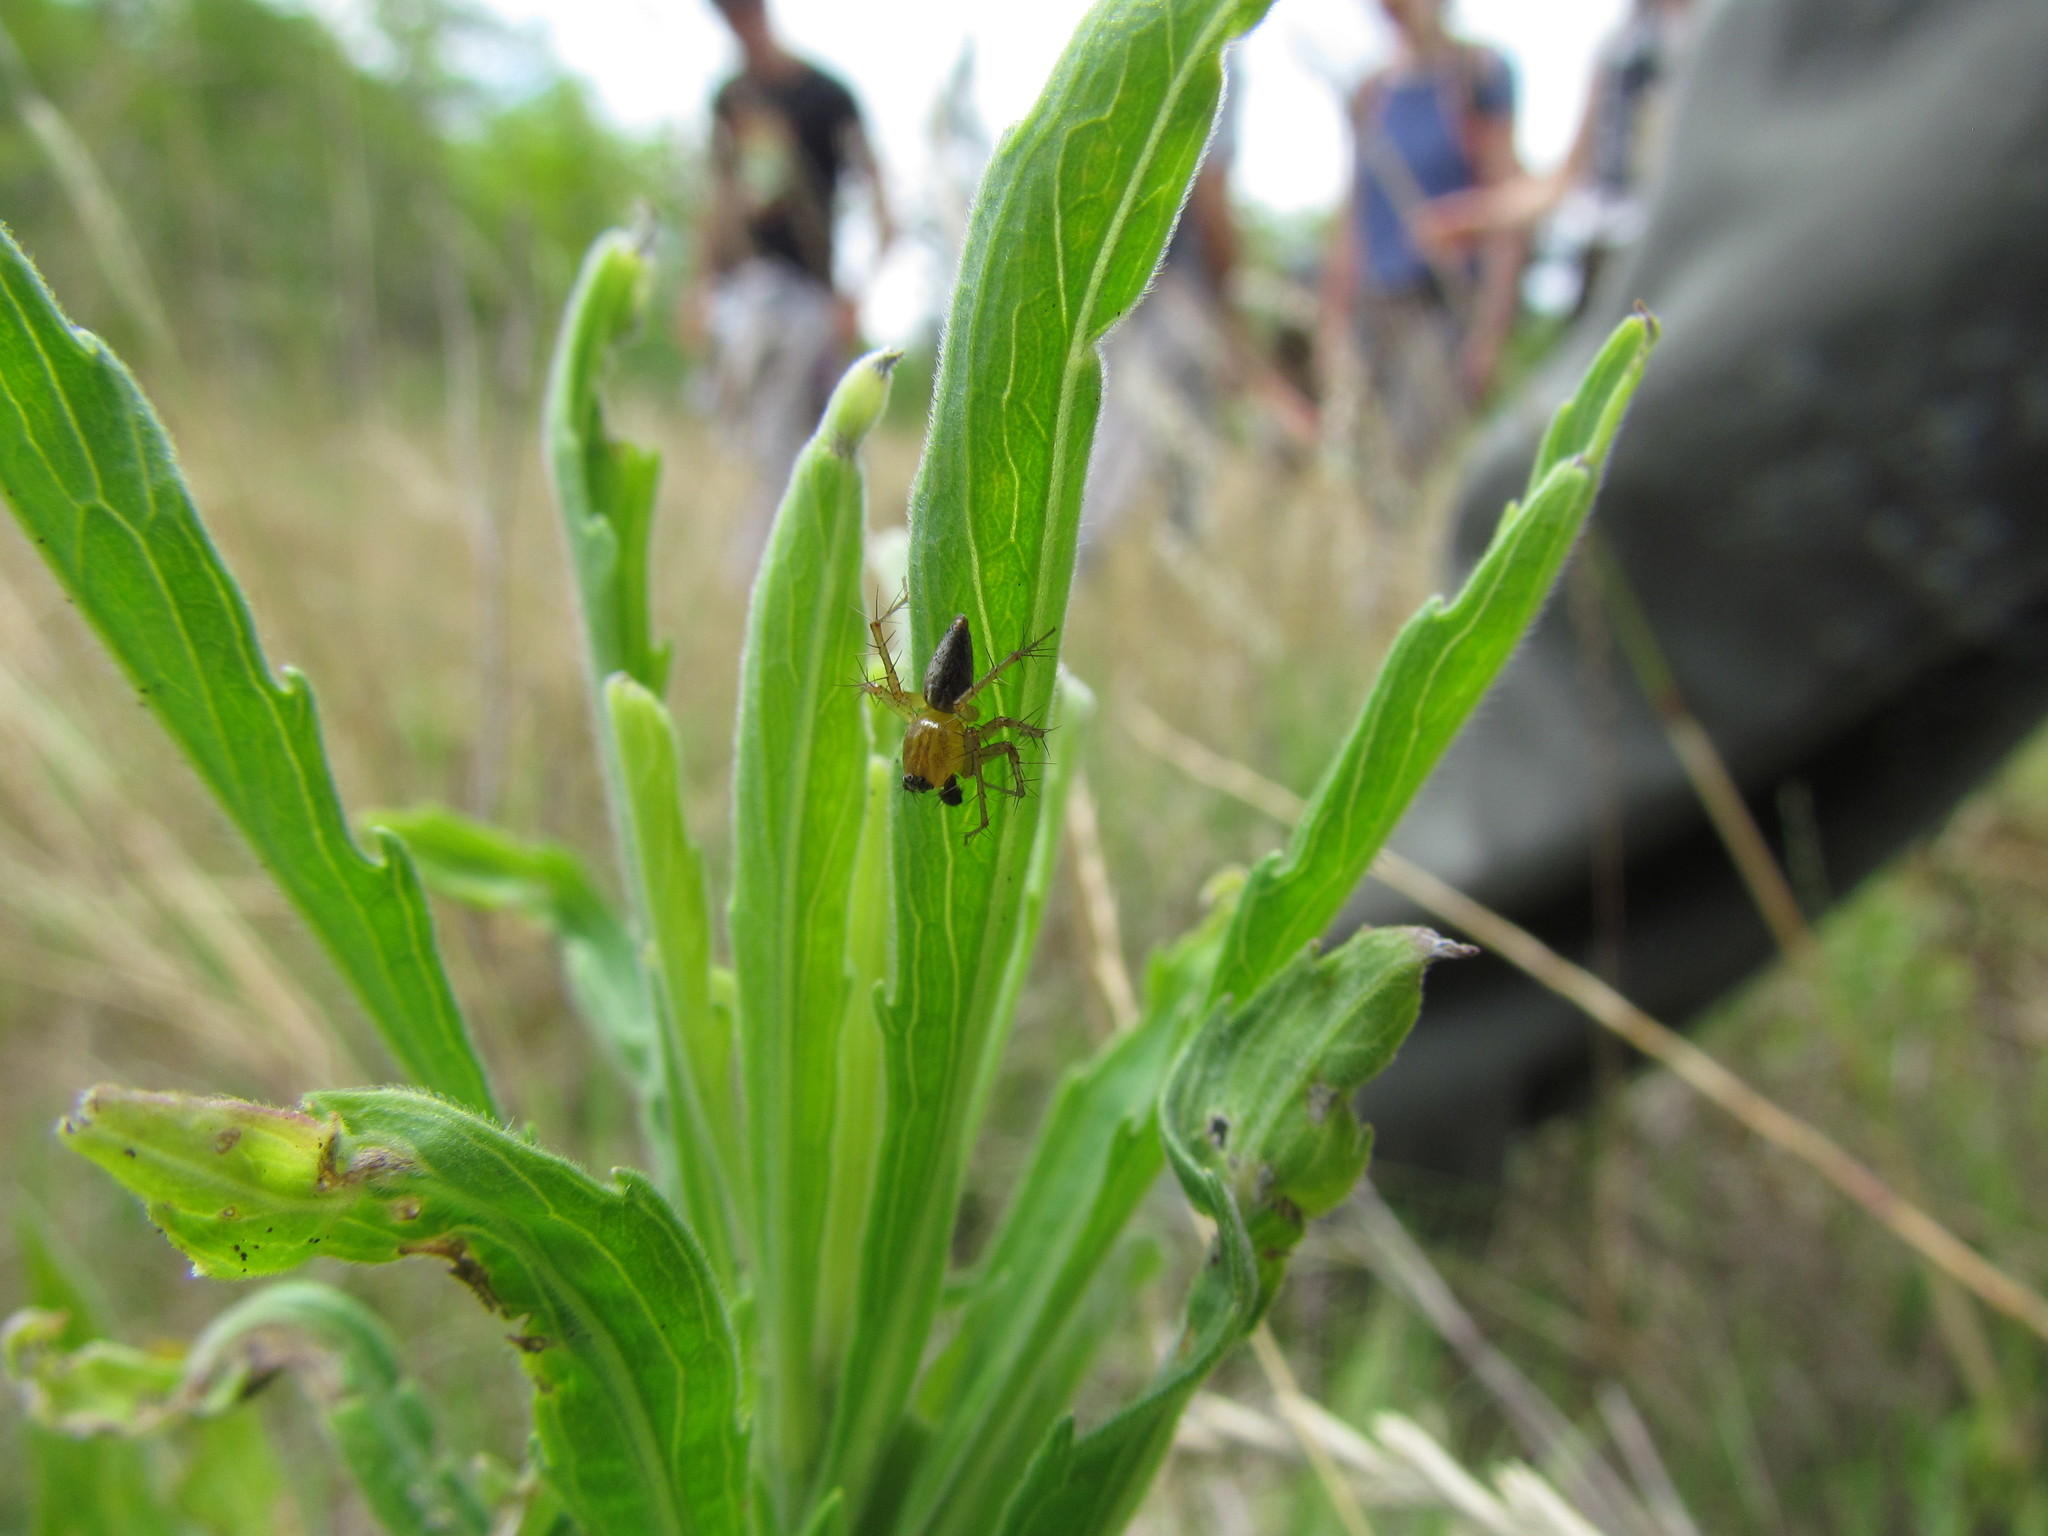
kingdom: Animalia
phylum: Arthropoda
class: Arachnida
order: Araneae
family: Oxyopidae
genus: Oxyopes
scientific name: Oxyopes salticus
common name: Lynx spiders
